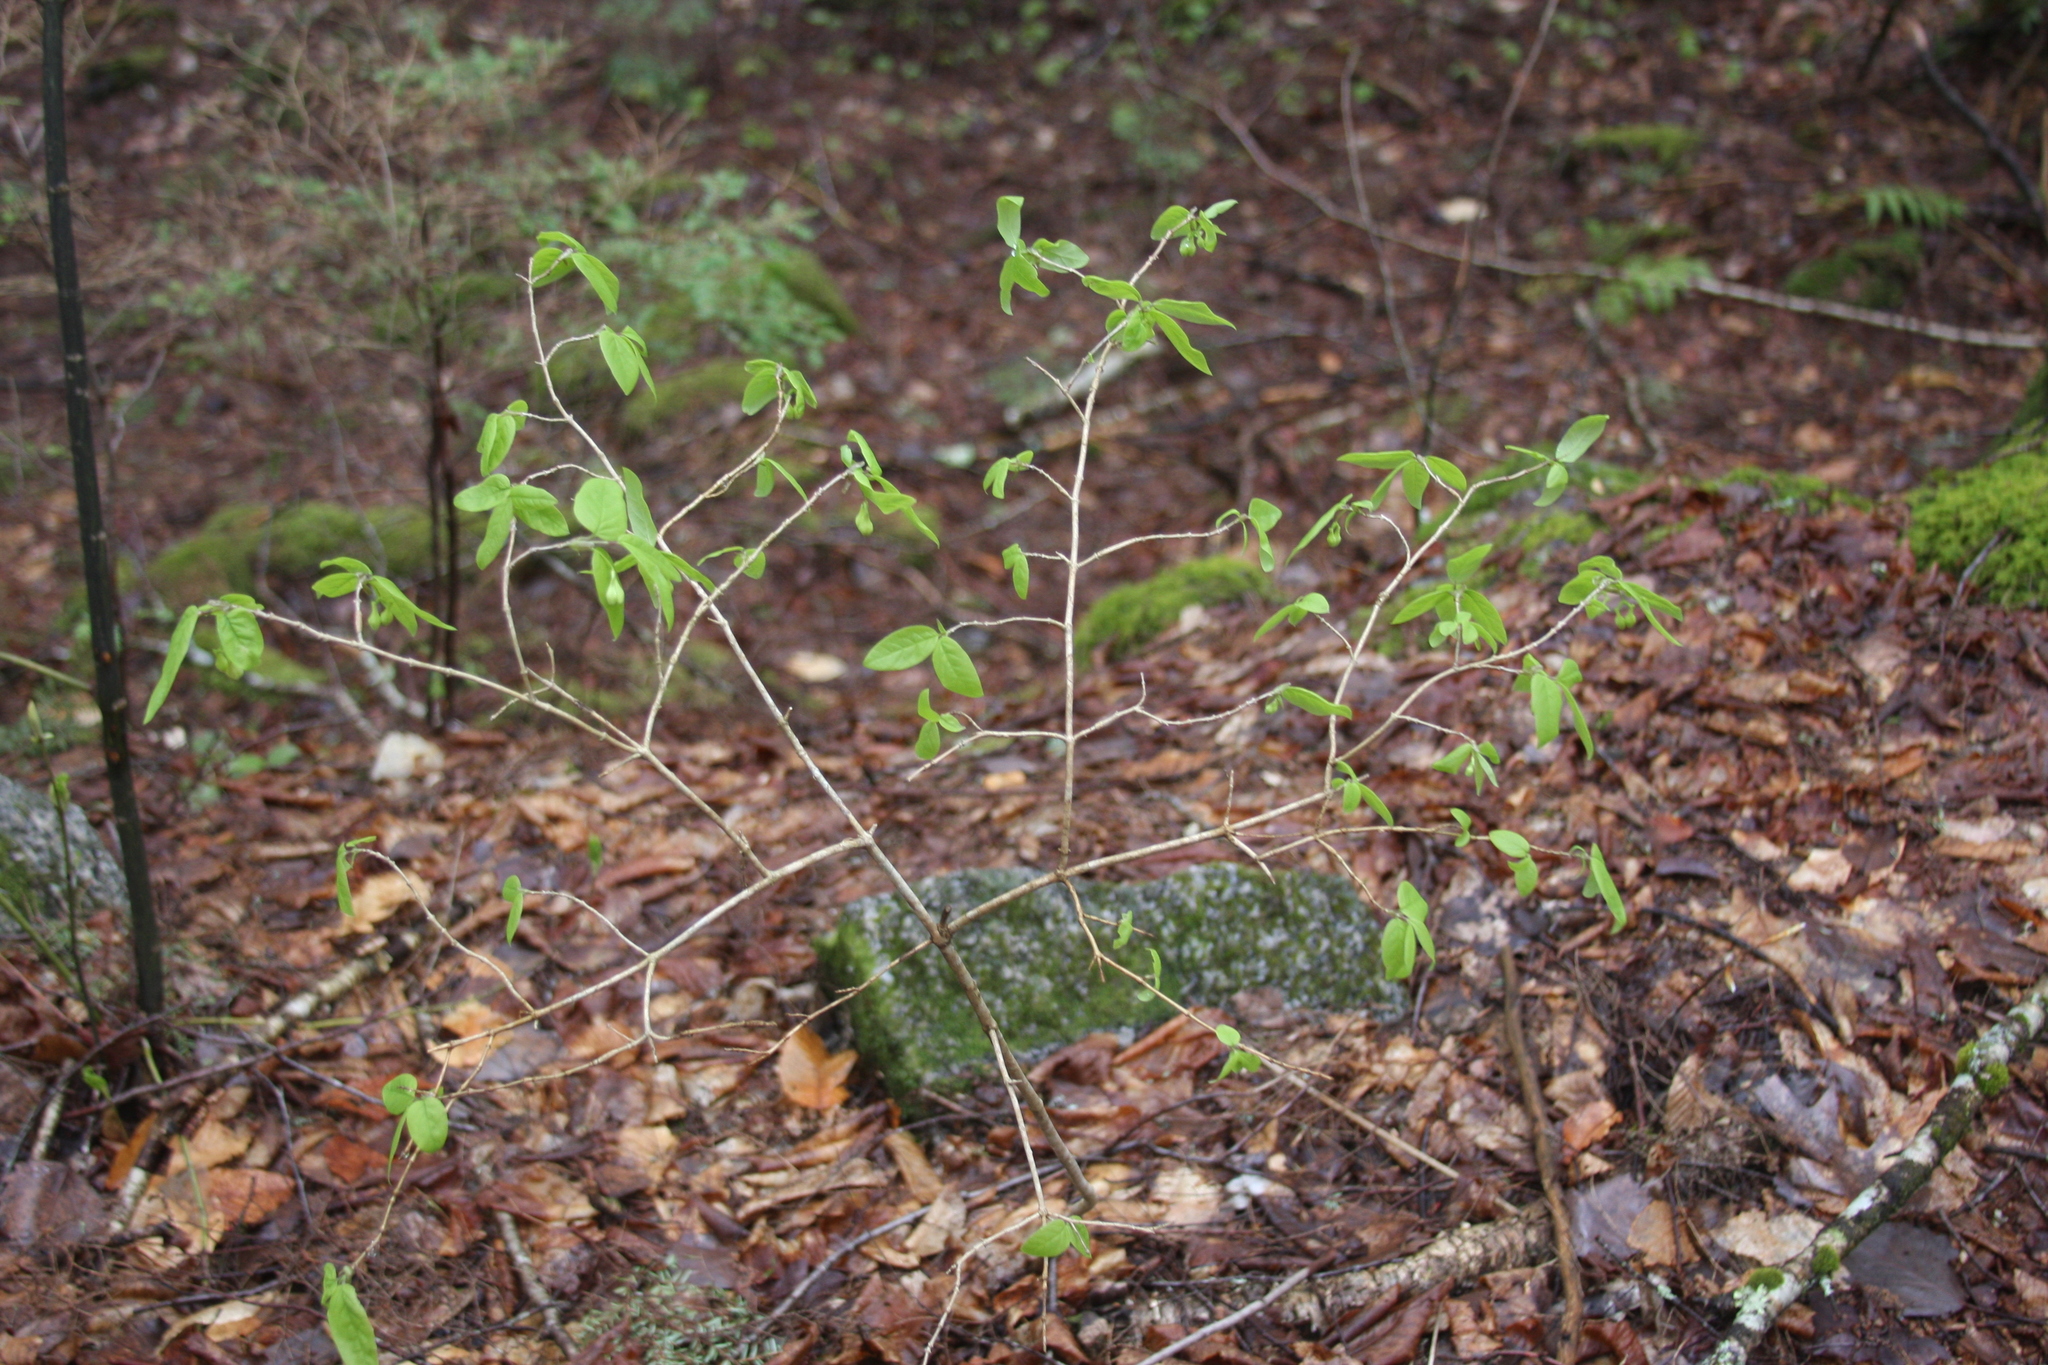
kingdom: Plantae
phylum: Tracheophyta
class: Magnoliopsida
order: Dipsacales
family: Caprifoliaceae
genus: Lonicera
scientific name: Lonicera canadensis
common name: American fly-honeysuckle
